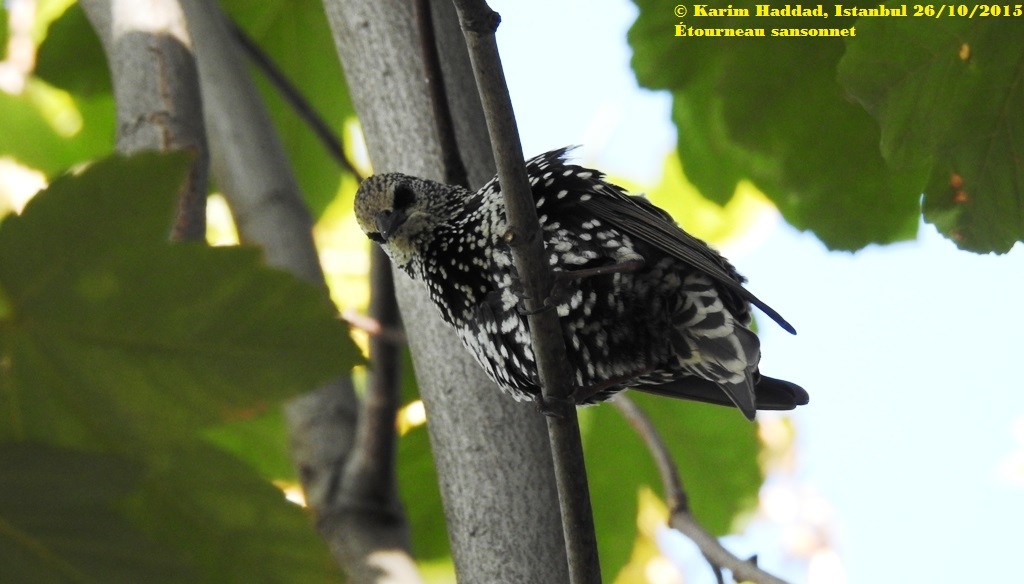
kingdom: Animalia
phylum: Chordata
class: Aves
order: Passeriformes
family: Sturnidae
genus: Sturnus
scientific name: Sturnus vulgaris
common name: Common starling
